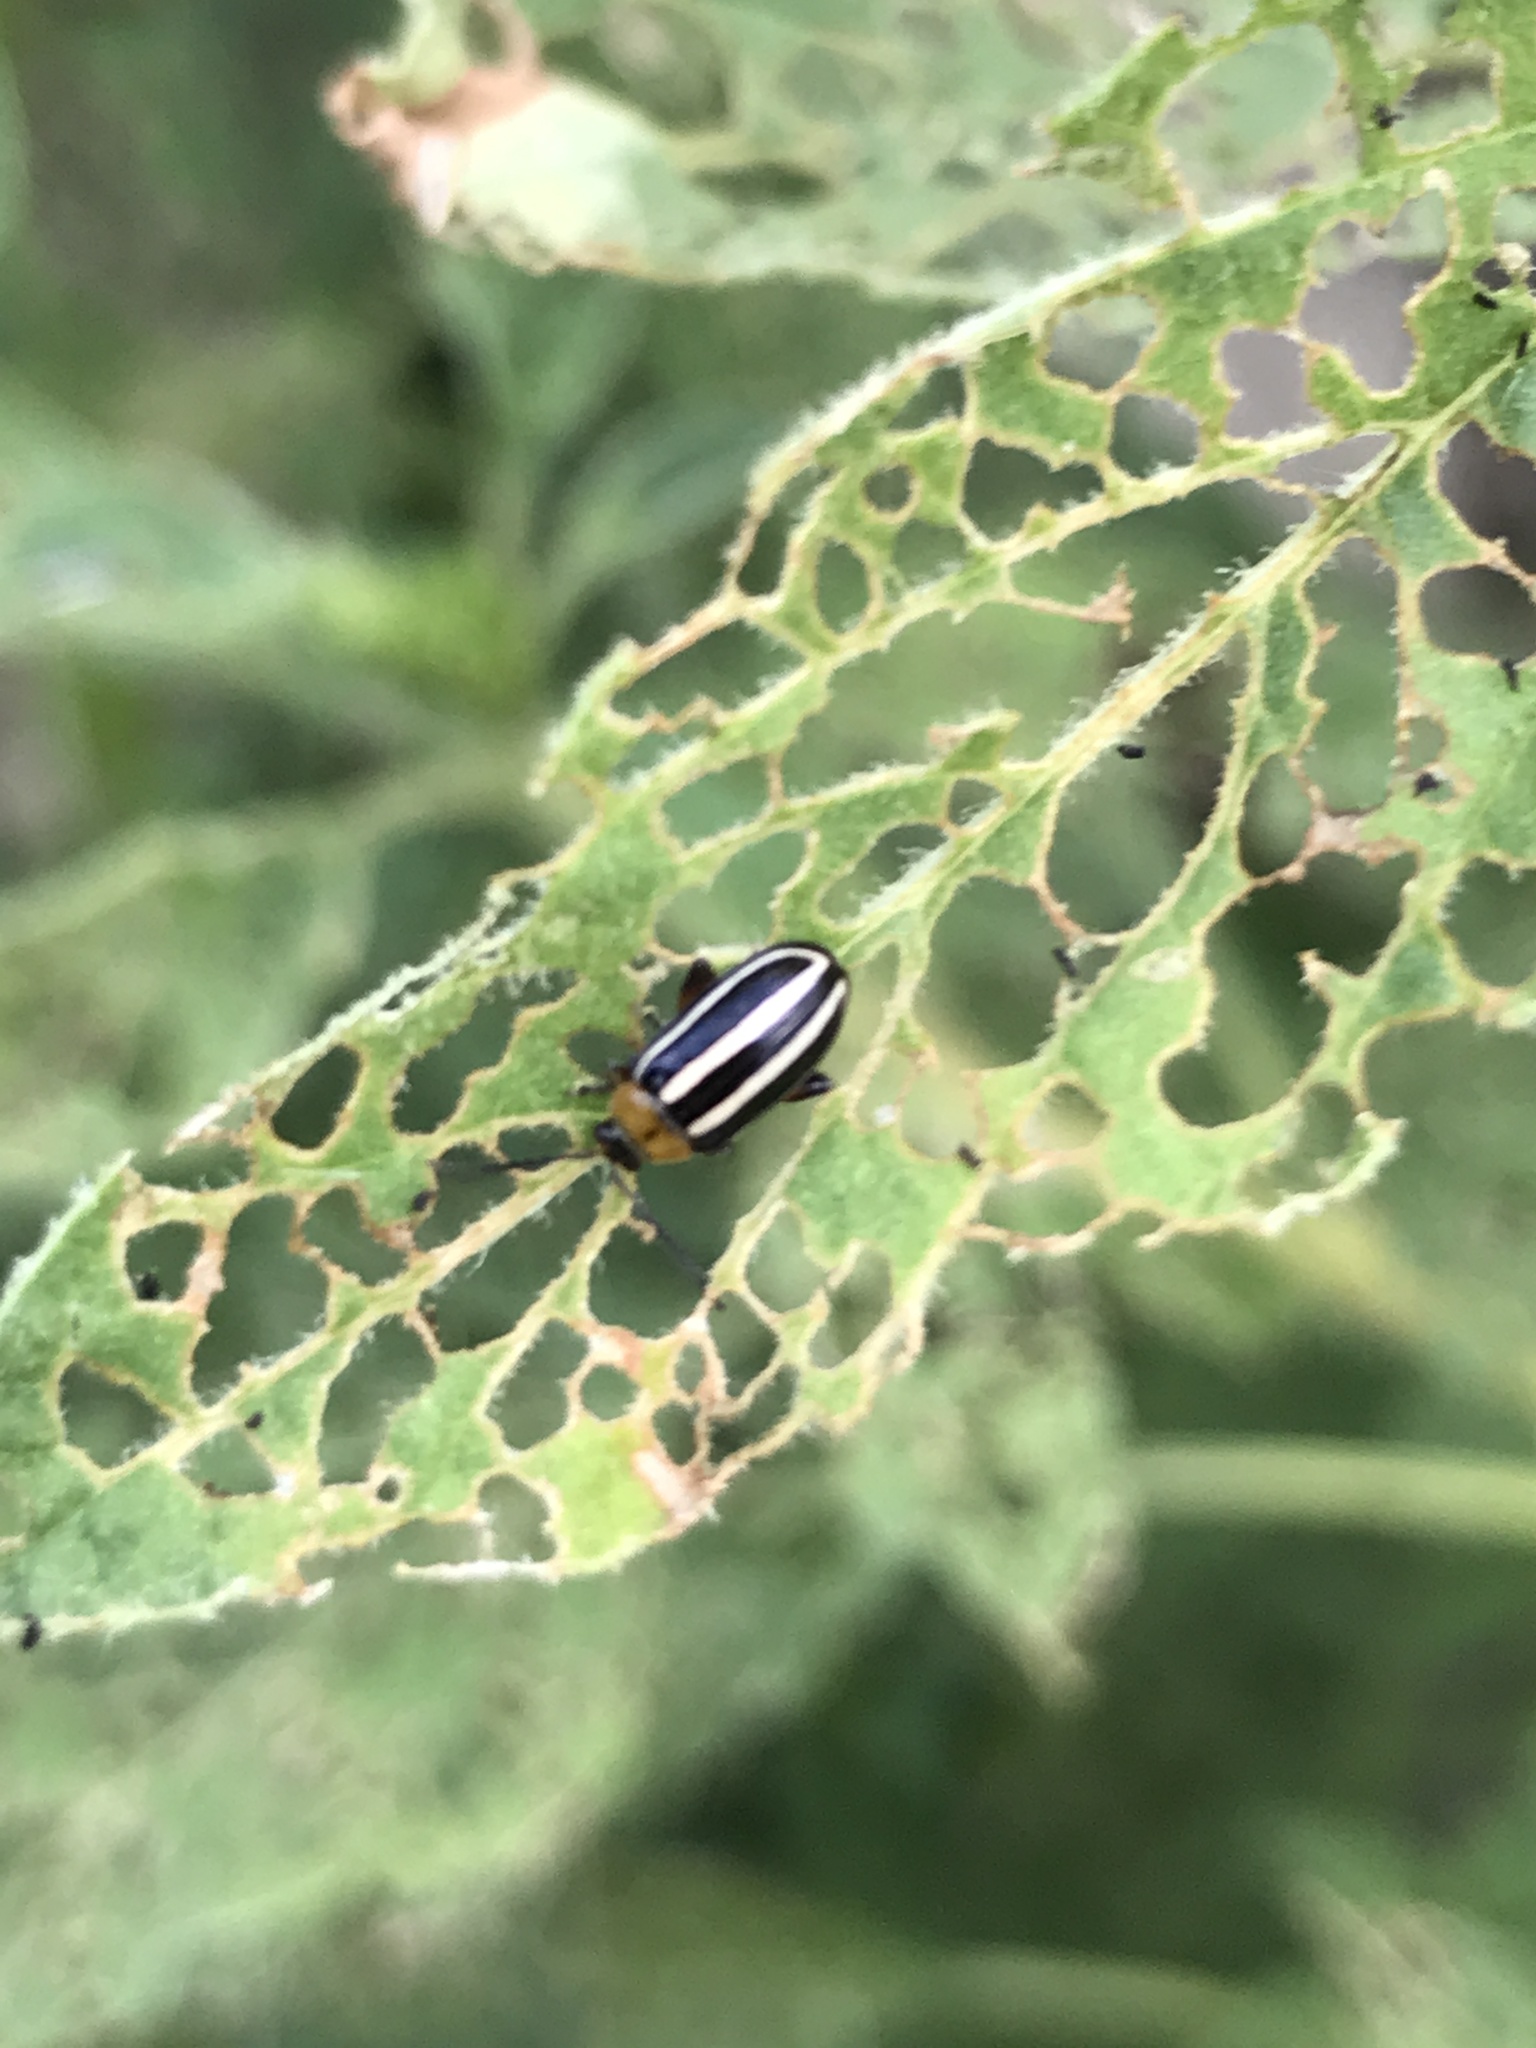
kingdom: Animalia
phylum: Arthropoda
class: Insecta
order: Coleoptera
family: Chrysomelidae
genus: Disonycha
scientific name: Disonycha glabrata
